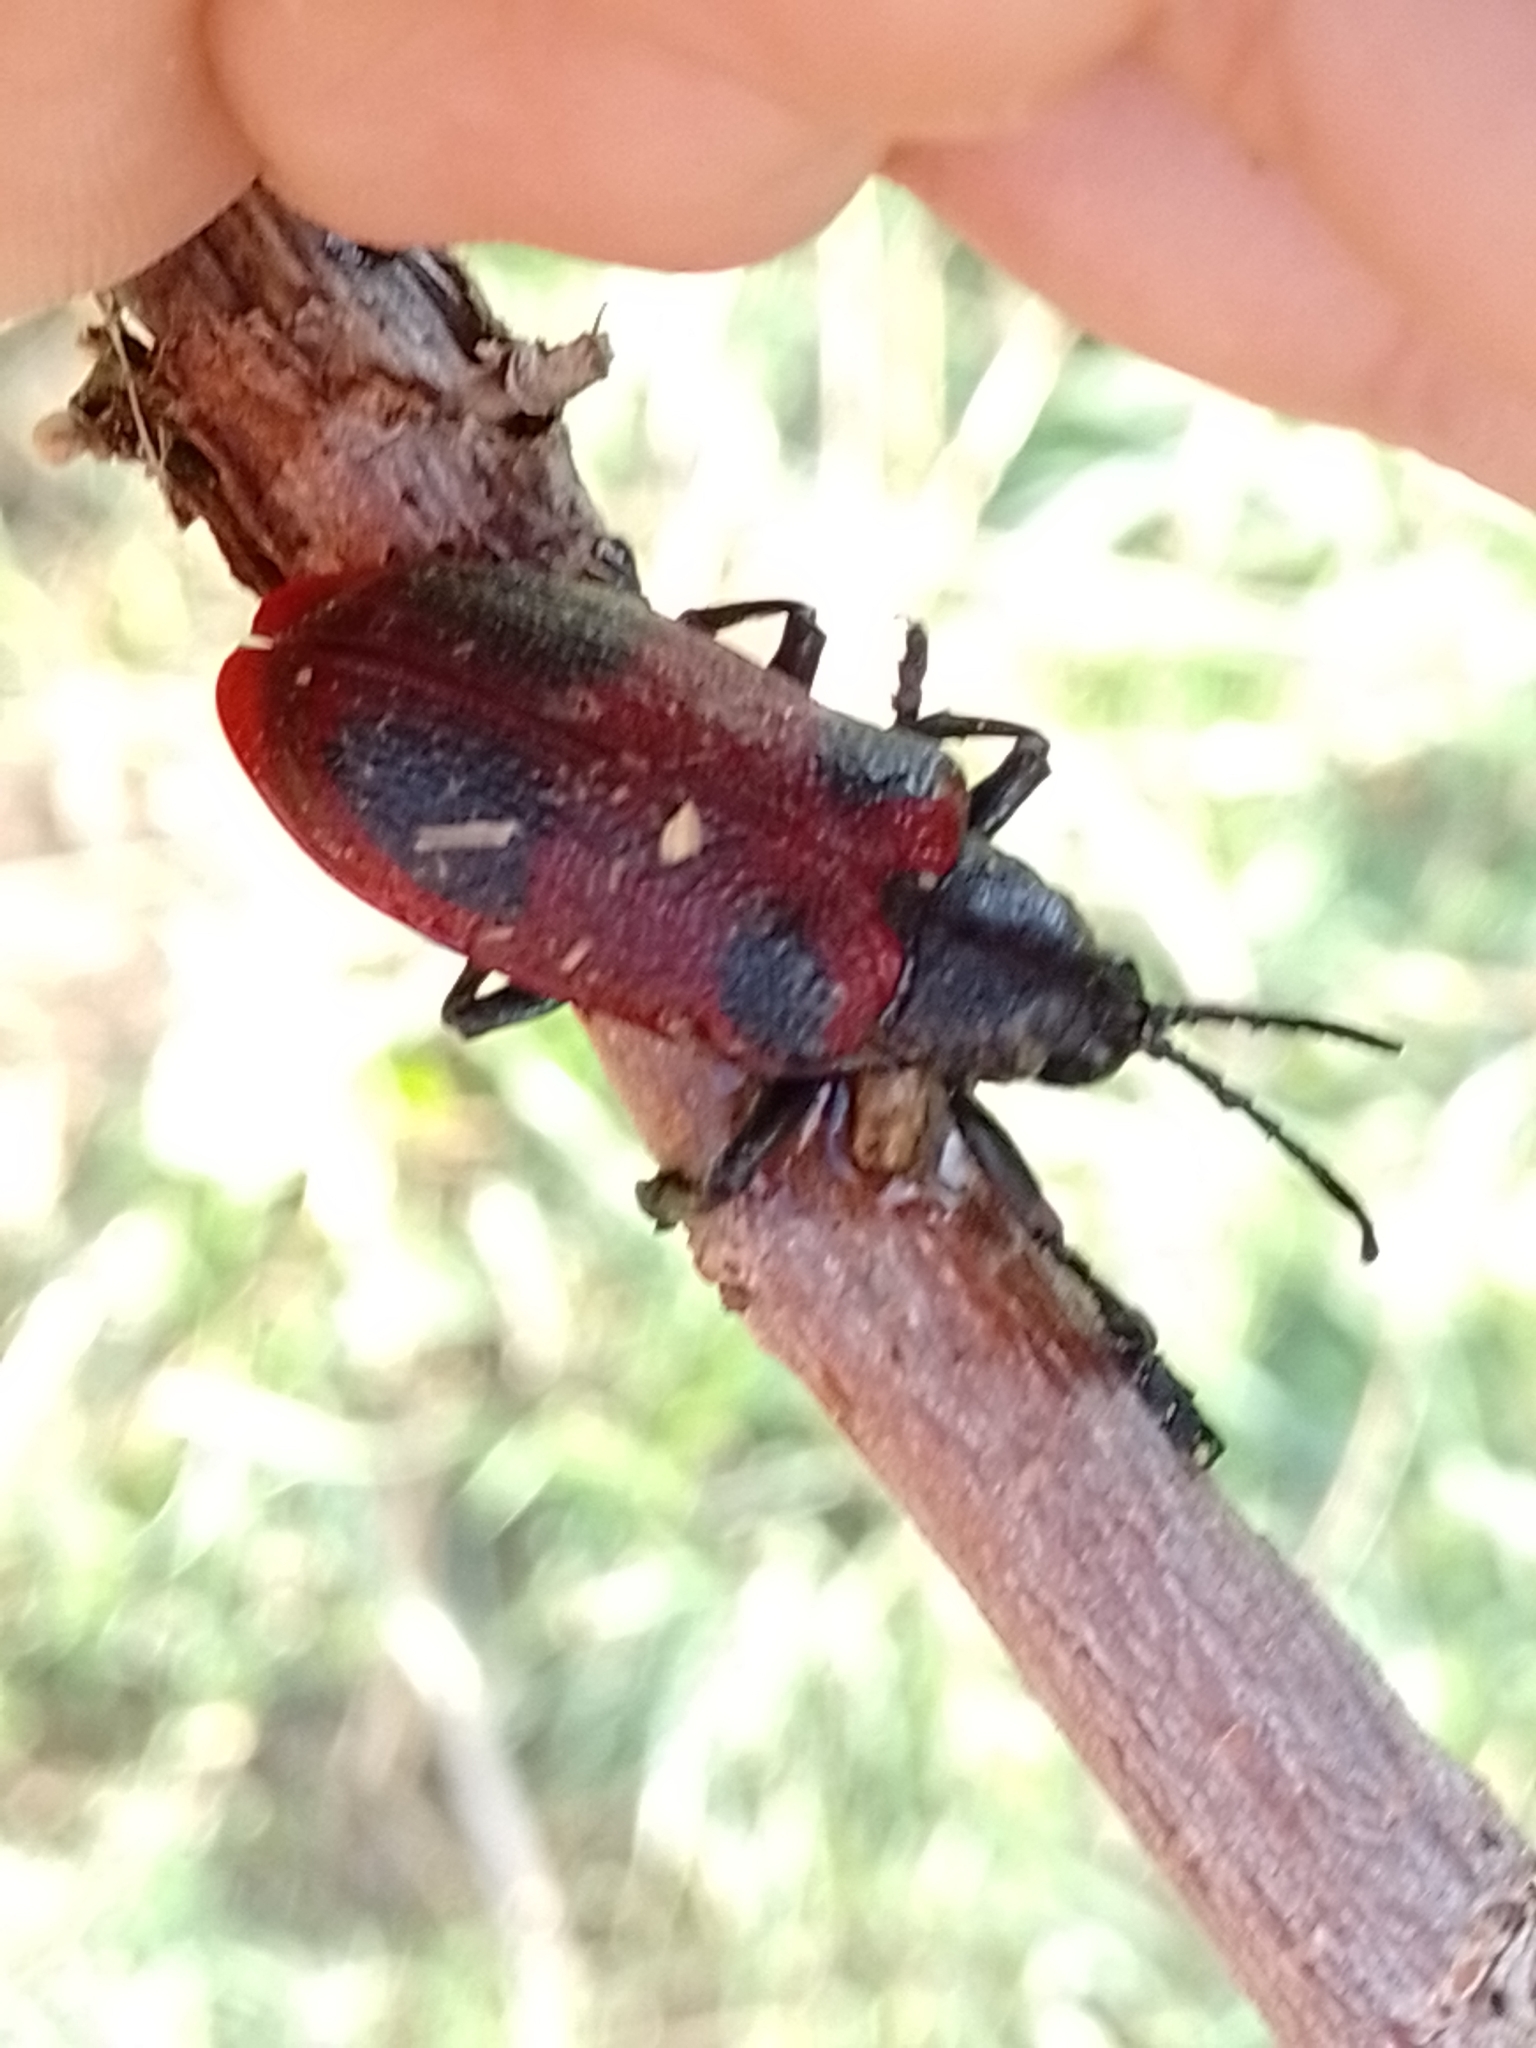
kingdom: Animalia
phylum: Arthropoda
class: Insecta
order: Coleoptera
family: Chrysomelidae
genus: Coraliomela
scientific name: Coraliomela quadrimaculata
